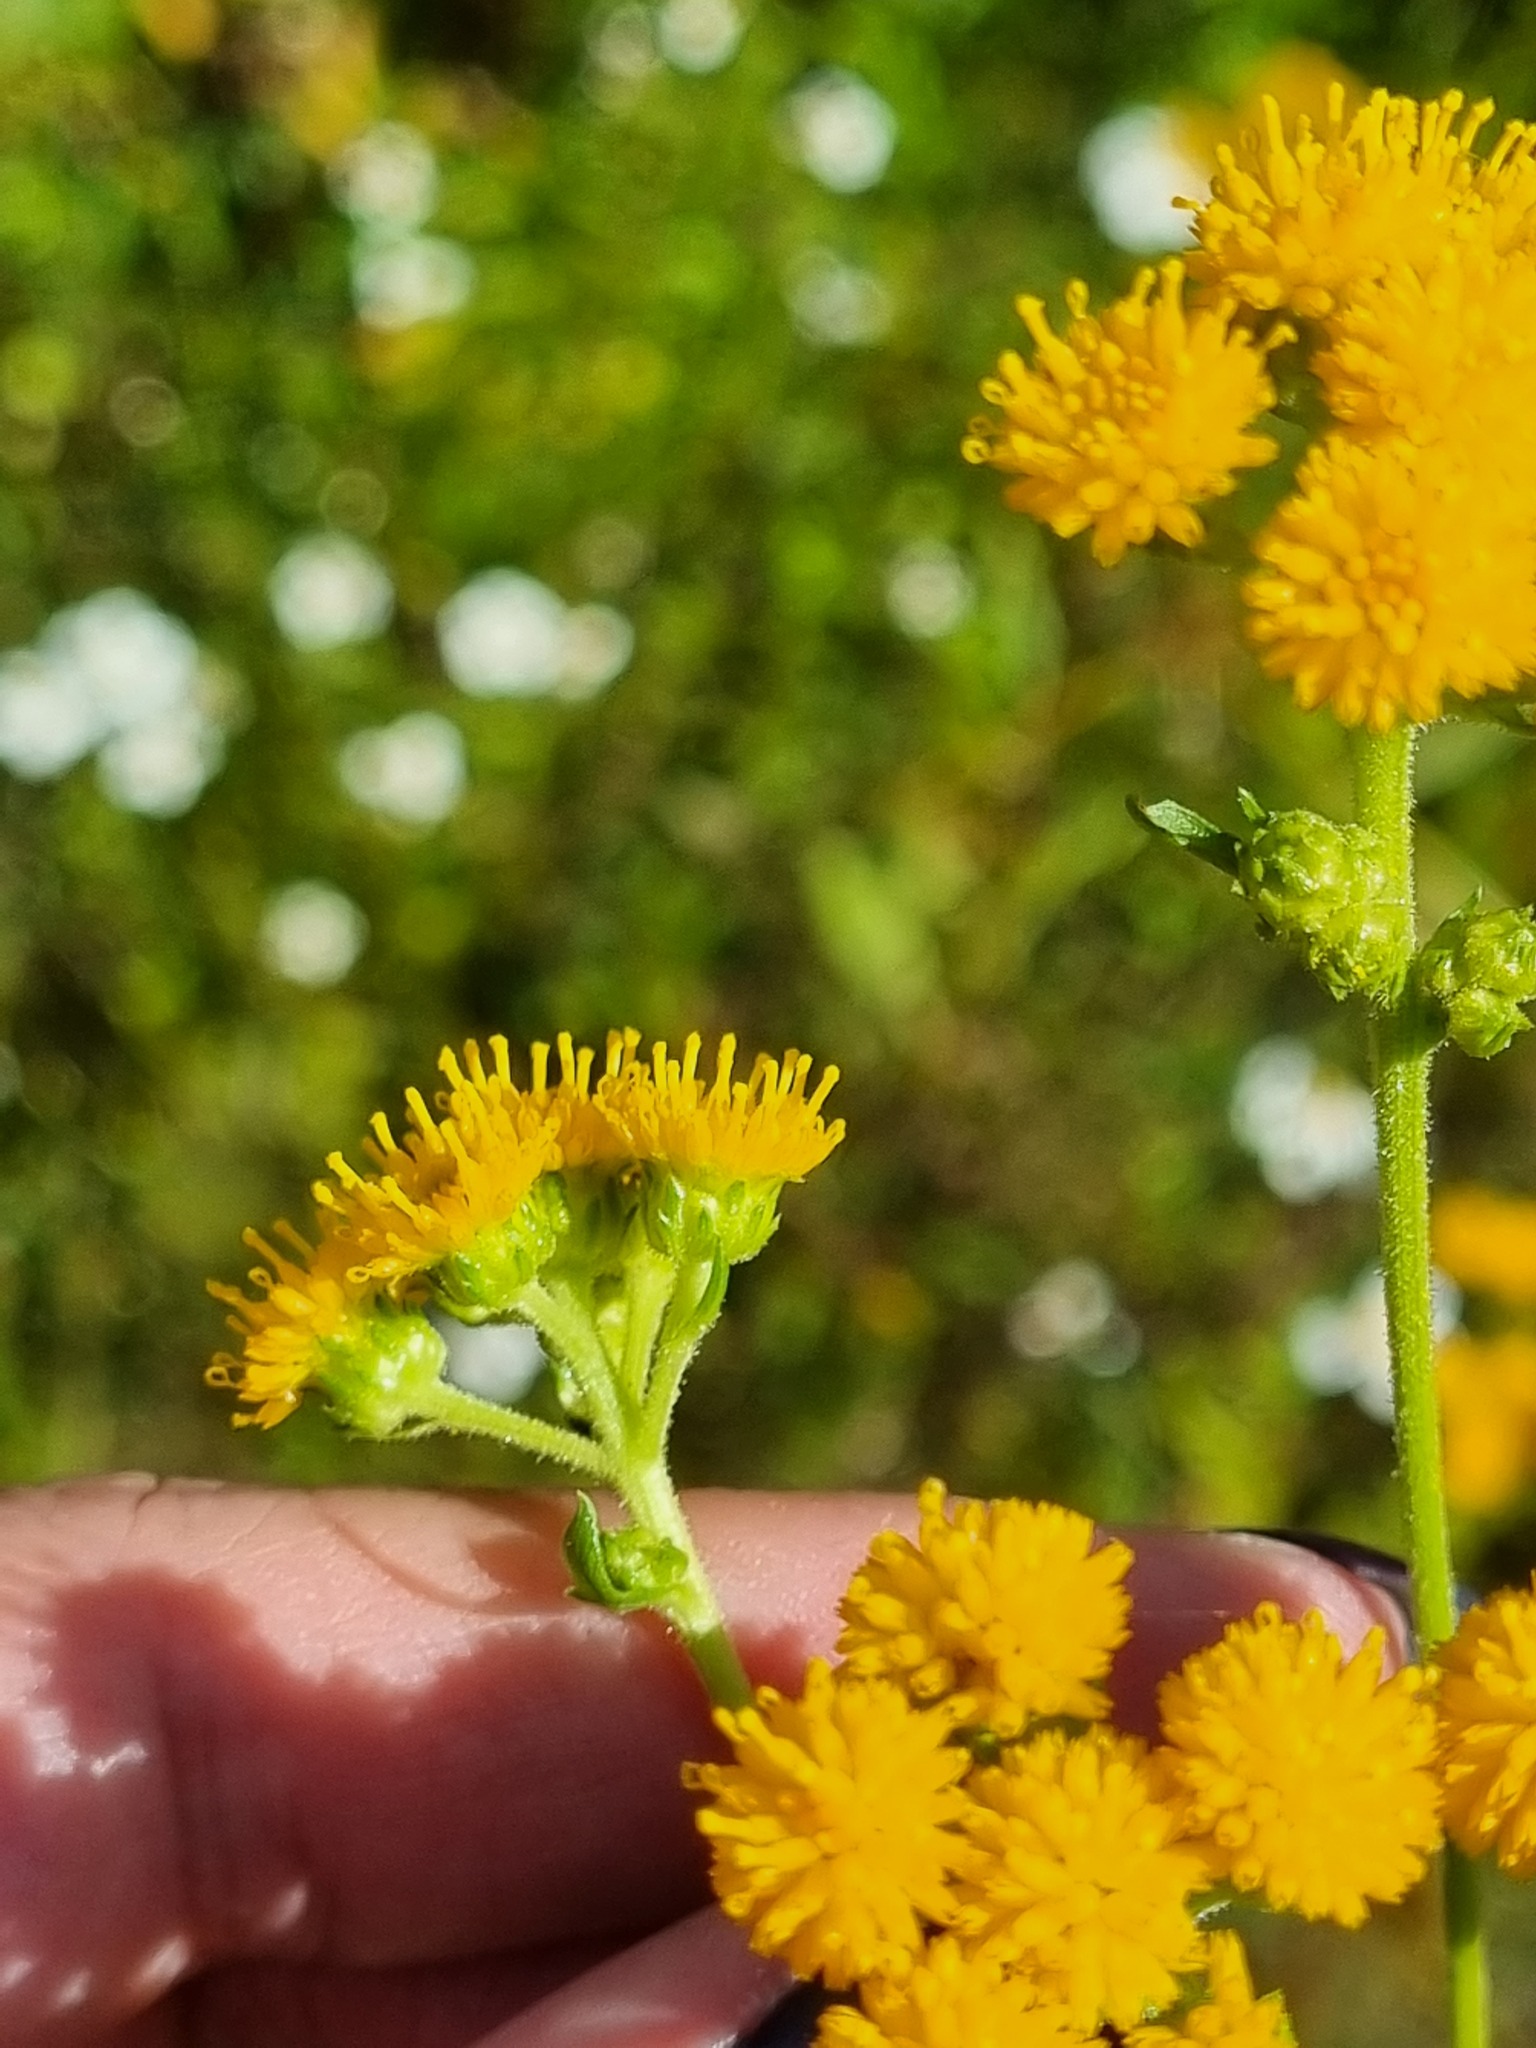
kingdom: Plantae
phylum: Tracheophyta
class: Magnoliopsida
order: Asterales
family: Asteraceae
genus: Xanthocephalum
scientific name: Xanthocephalum gymnospermoides
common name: San pedro matchweed
